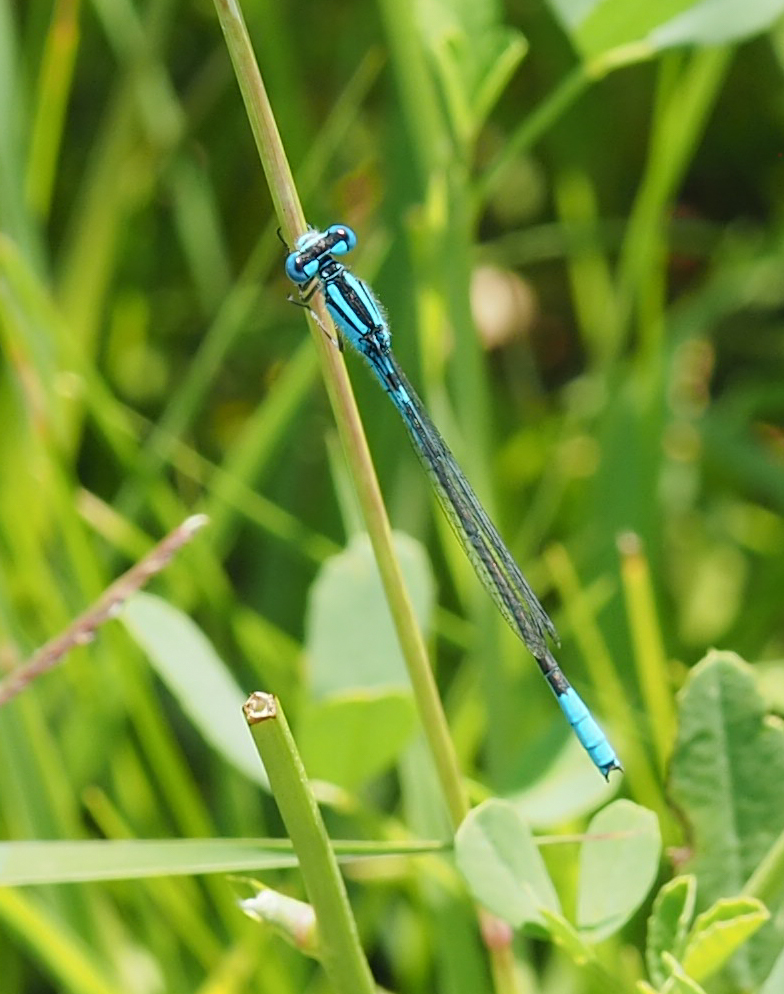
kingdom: Animalia
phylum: Arthropoda
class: Insecta
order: Odonata
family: Coenagrionidae
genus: Enallagma
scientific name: Enallagma aspersum
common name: Azure bluet
